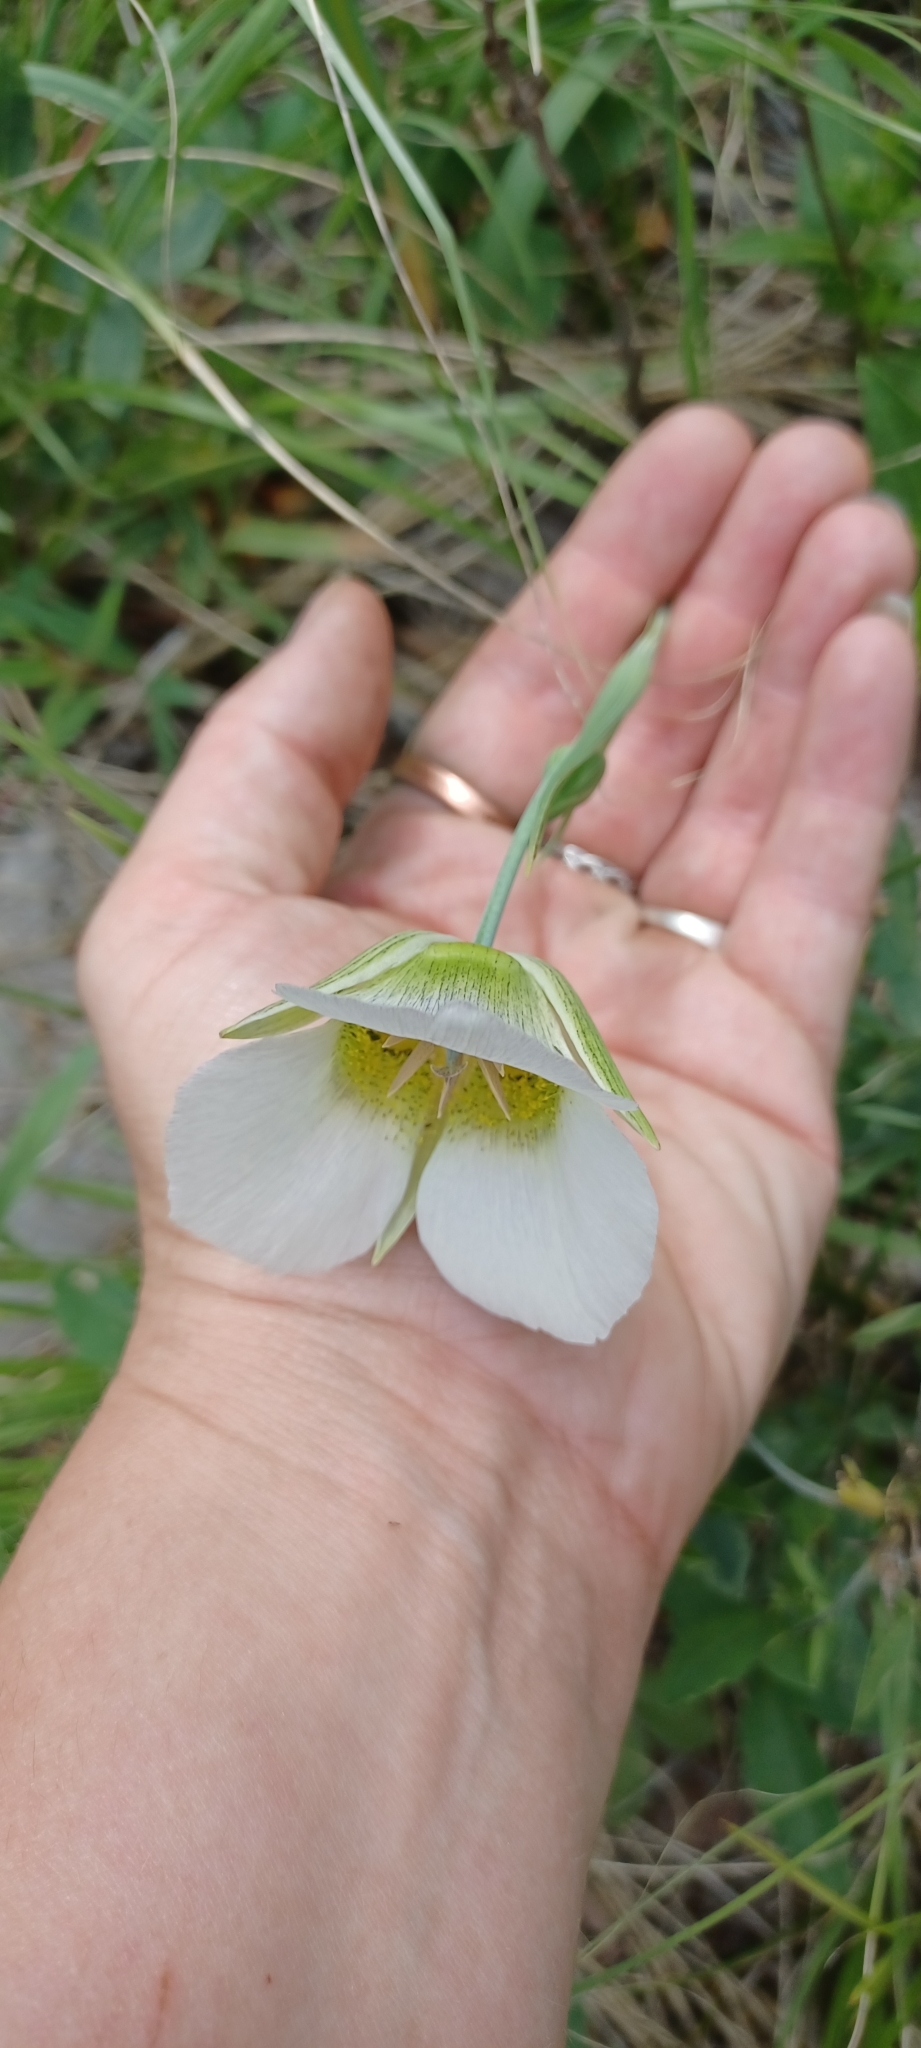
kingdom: Plantae
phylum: Tracheophyta
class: Liliopsida
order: Liliales
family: Liliaceae
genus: Calochortus
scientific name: Calochortus gunnisonii
